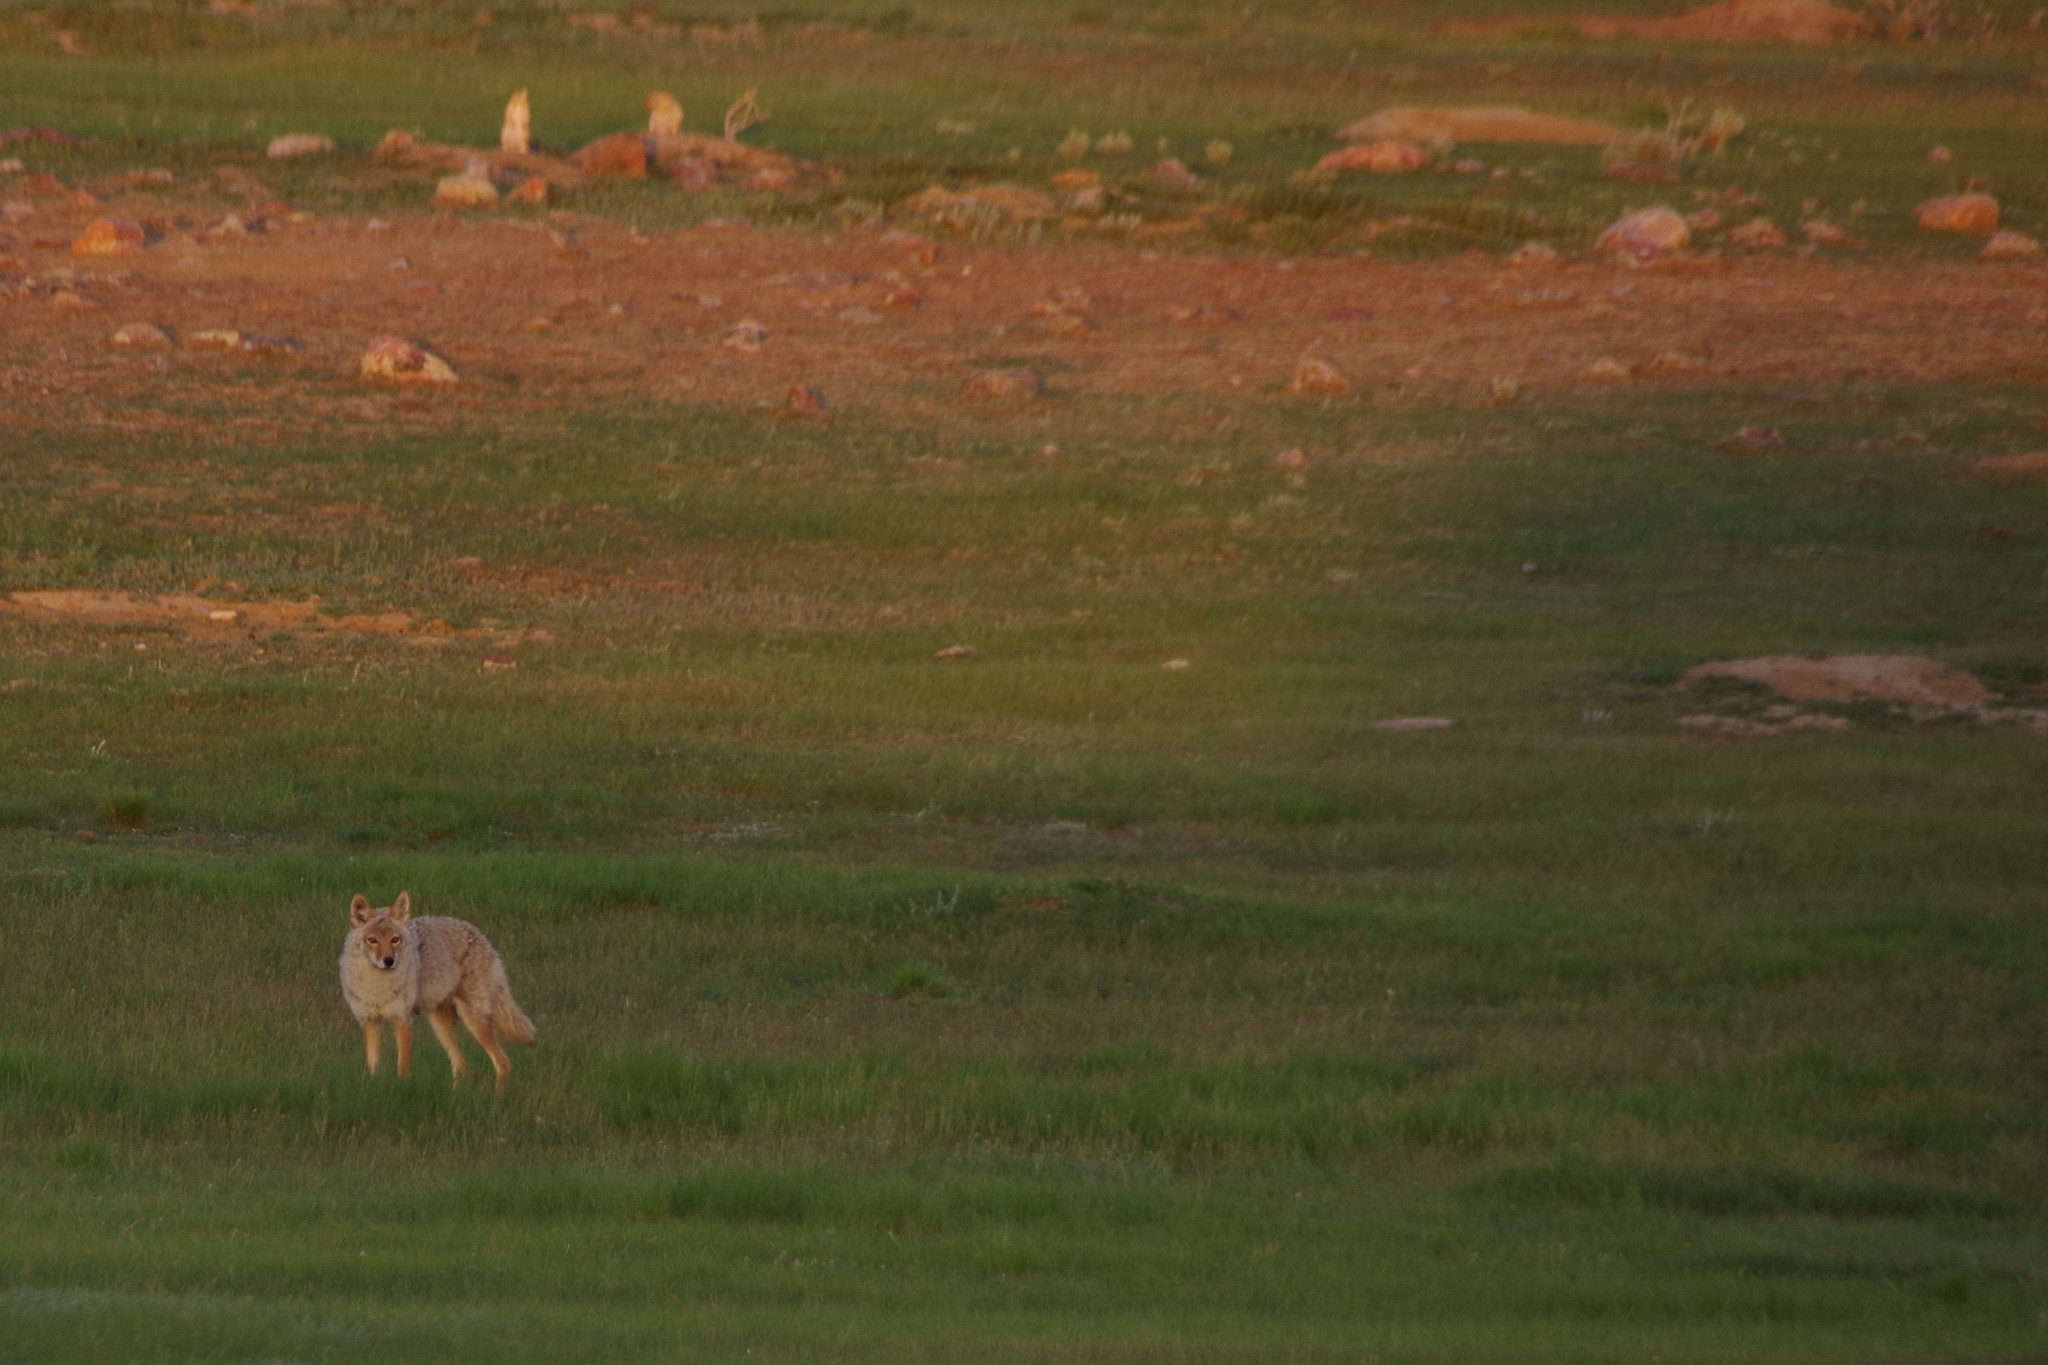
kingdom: Animalia
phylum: Chordata
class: Mammalia
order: Carnivora
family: Canidae
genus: Canis
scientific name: Canis latrans
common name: Coyote
